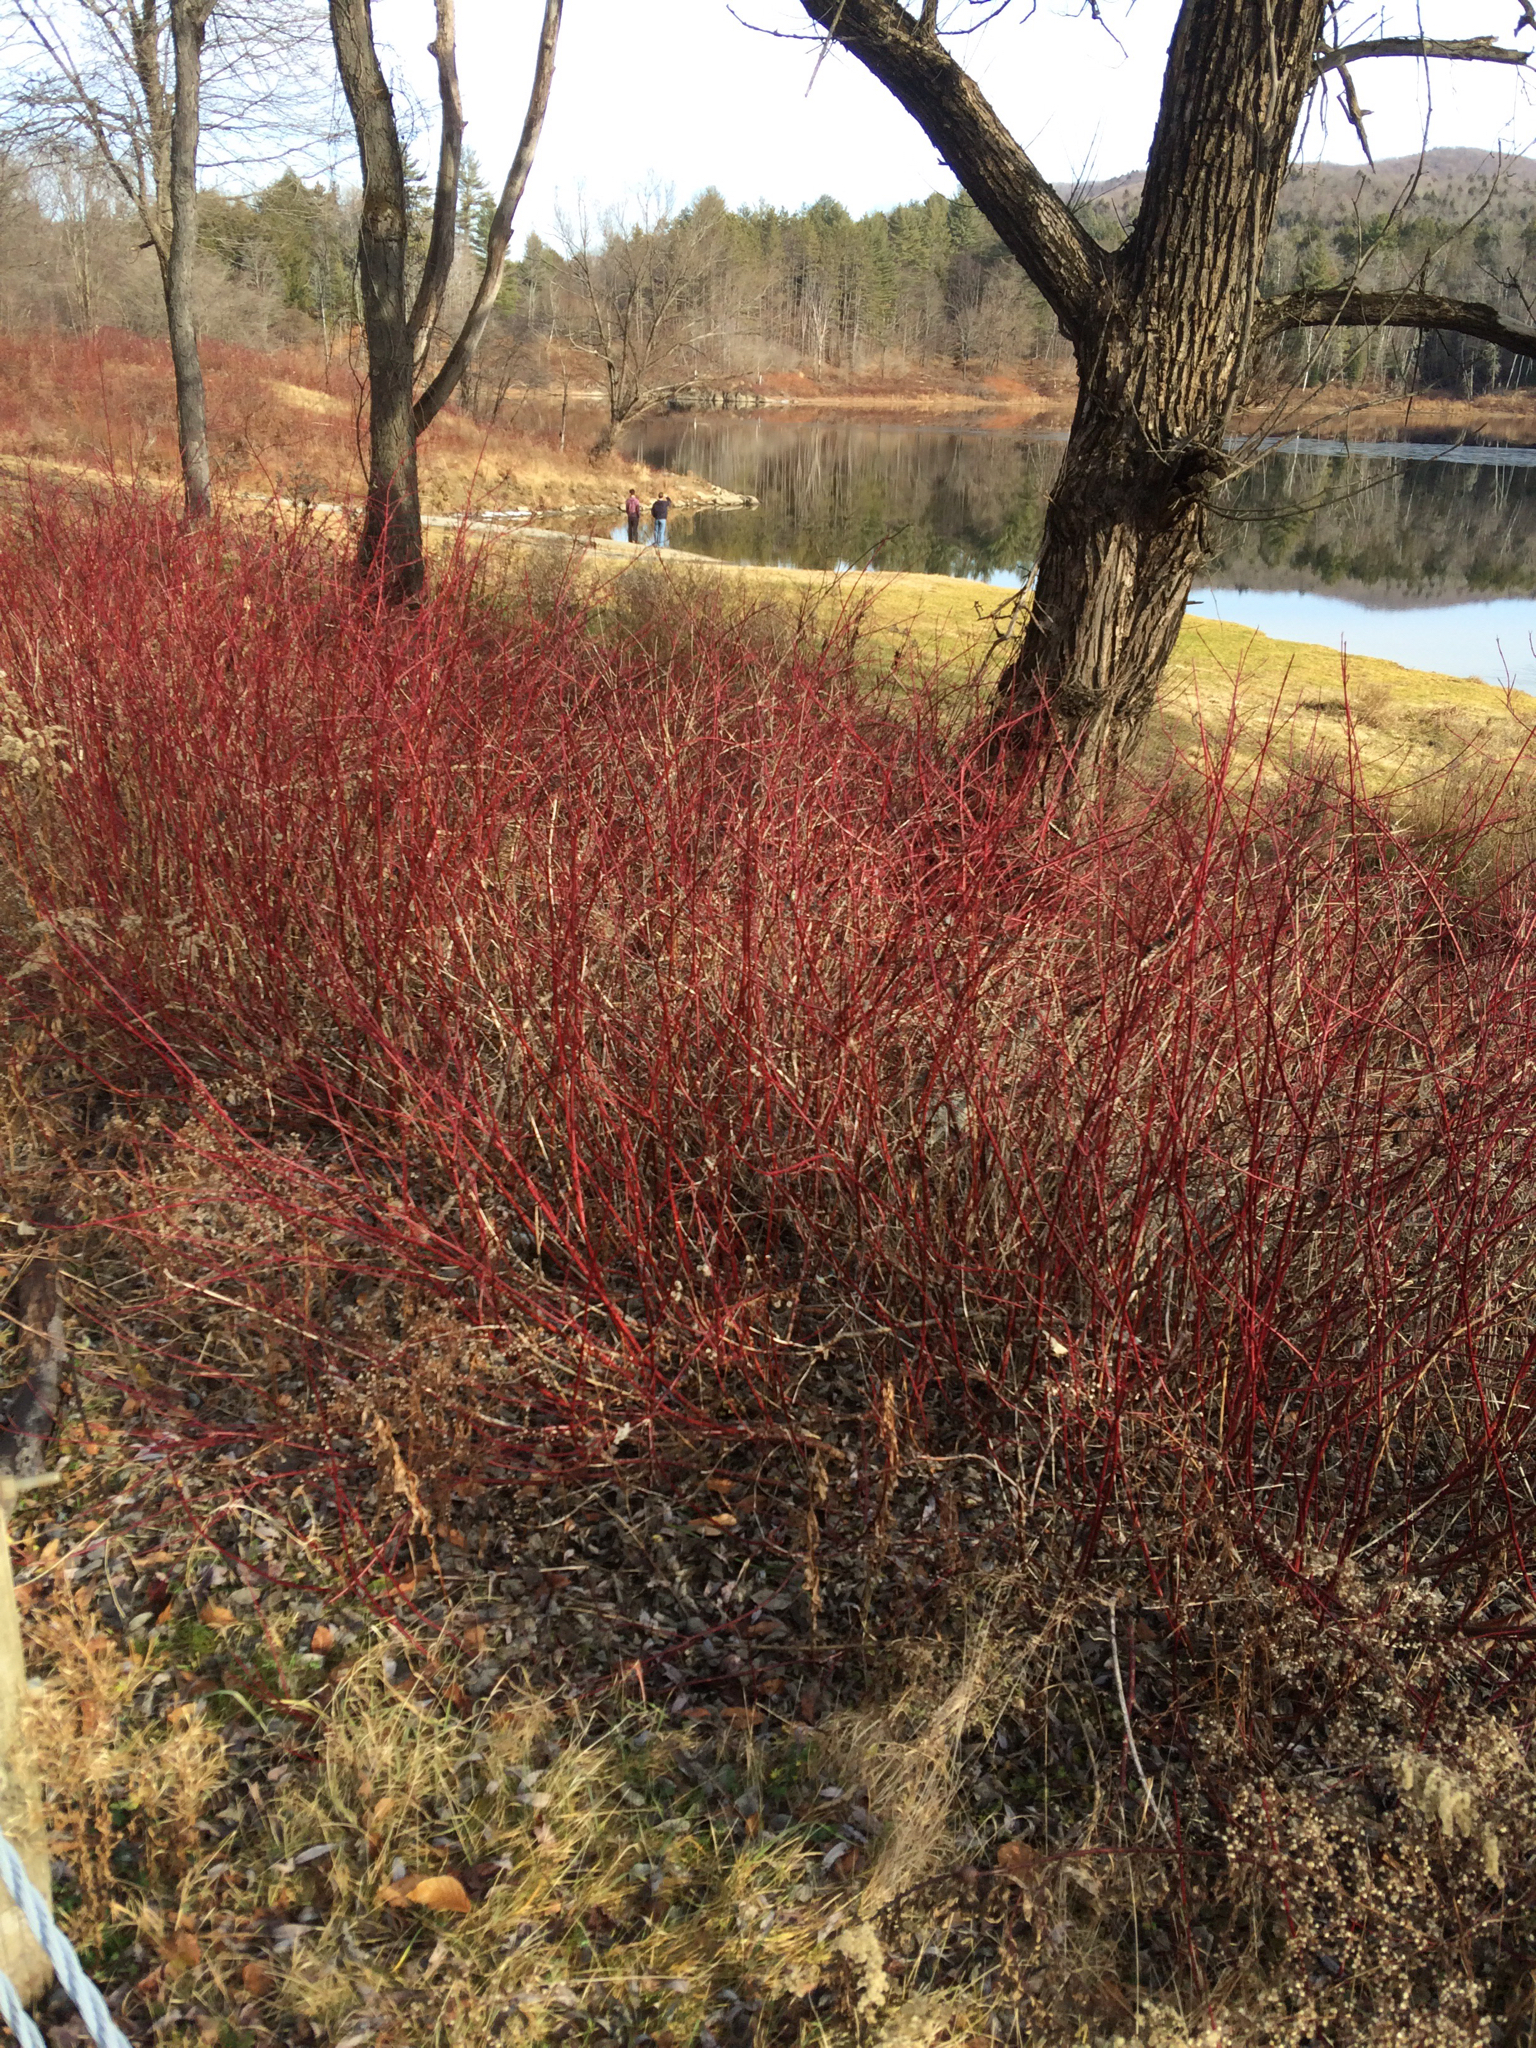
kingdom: Plantae
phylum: Tracheophyta
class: Magnoliopsida
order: Cornales
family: Cornaceae
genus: Cornus
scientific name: Cornus sericea
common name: Red-osier dogwood
